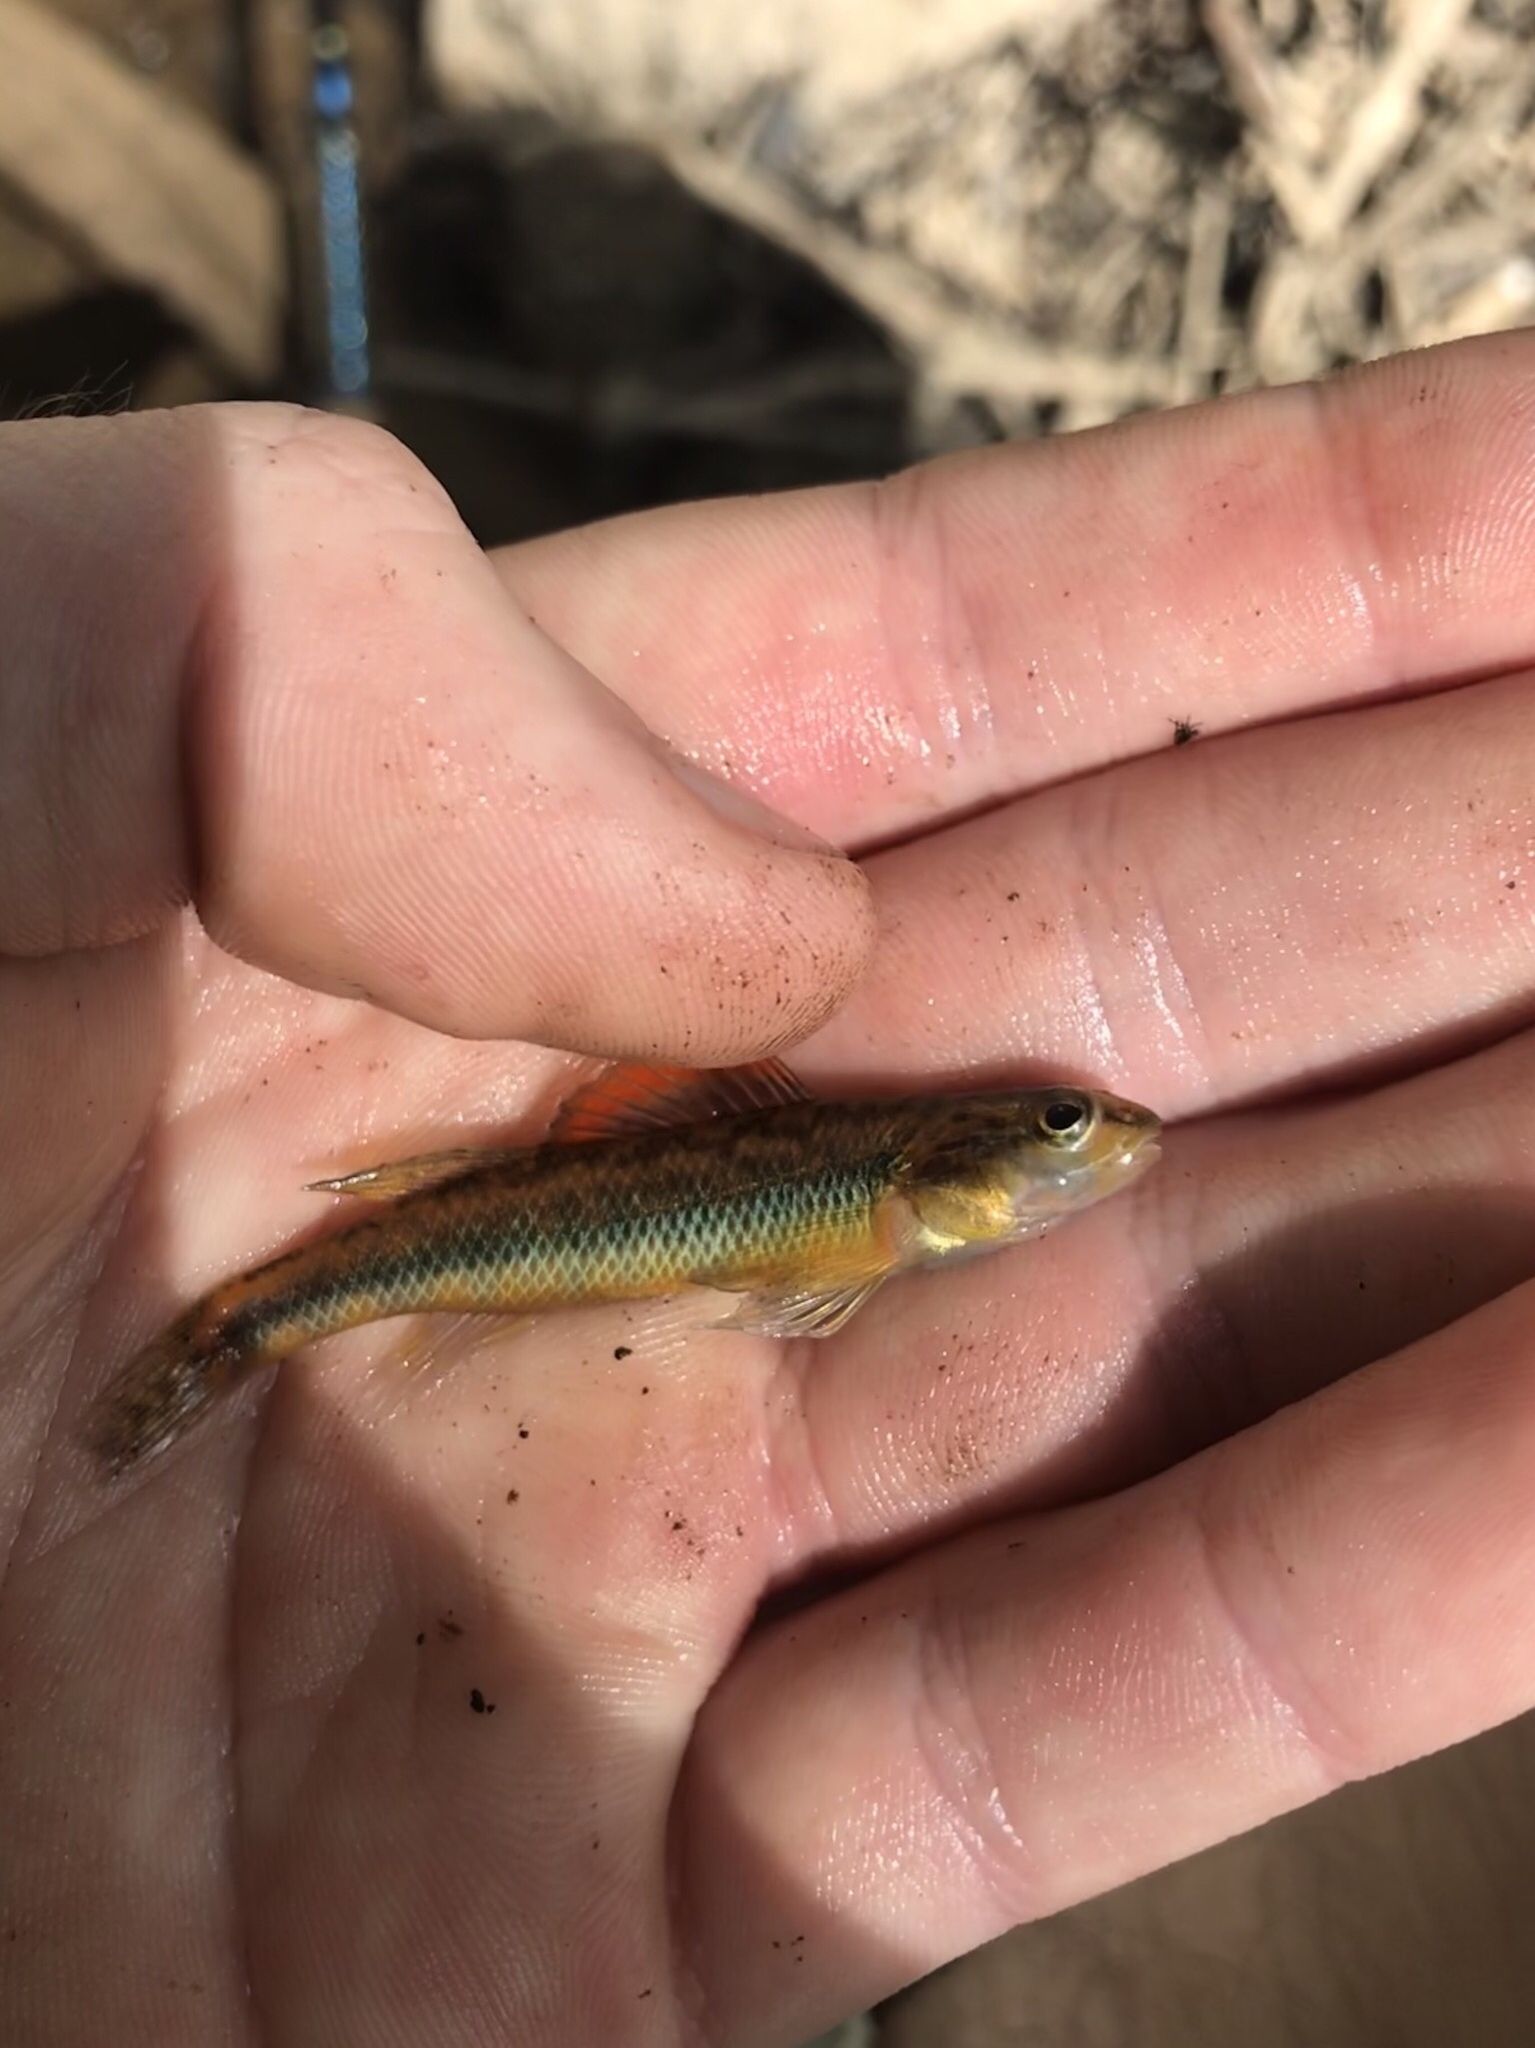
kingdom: Animalia
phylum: Chordata
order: Perciformes
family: Percidae
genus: Percina
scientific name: Percina roanoka
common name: Roanoke darter
